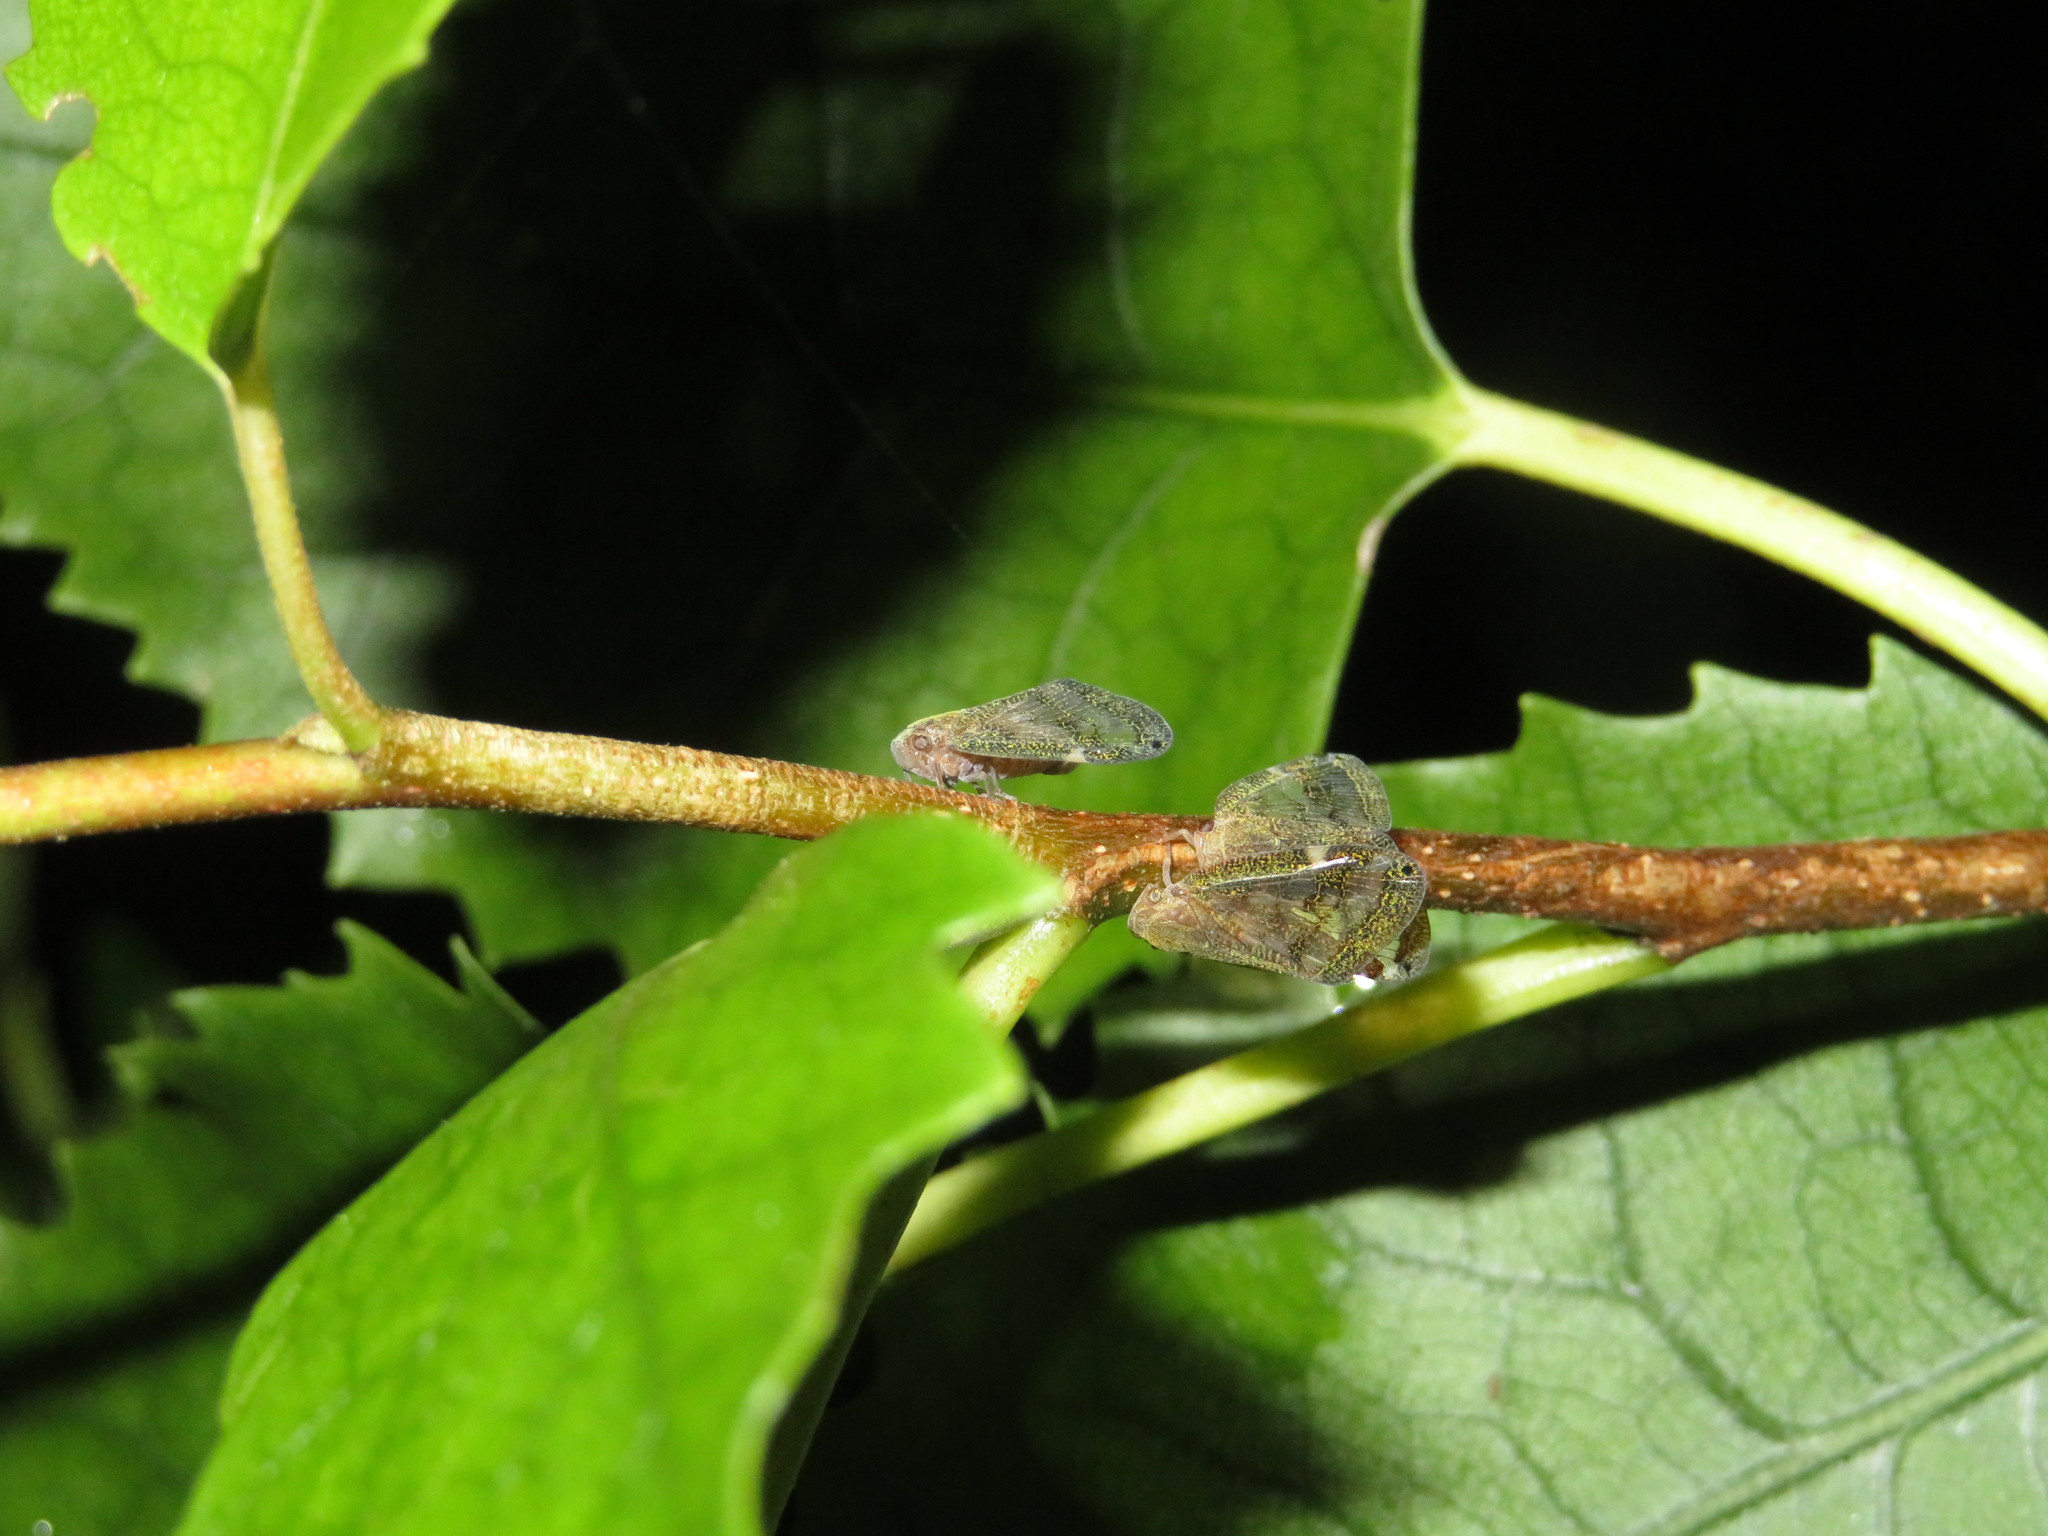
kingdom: Animalia
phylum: Arthropoda
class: Insecta
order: Hemiptera
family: Ricaniidae
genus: Scolypopa
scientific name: Scolypopa australis
